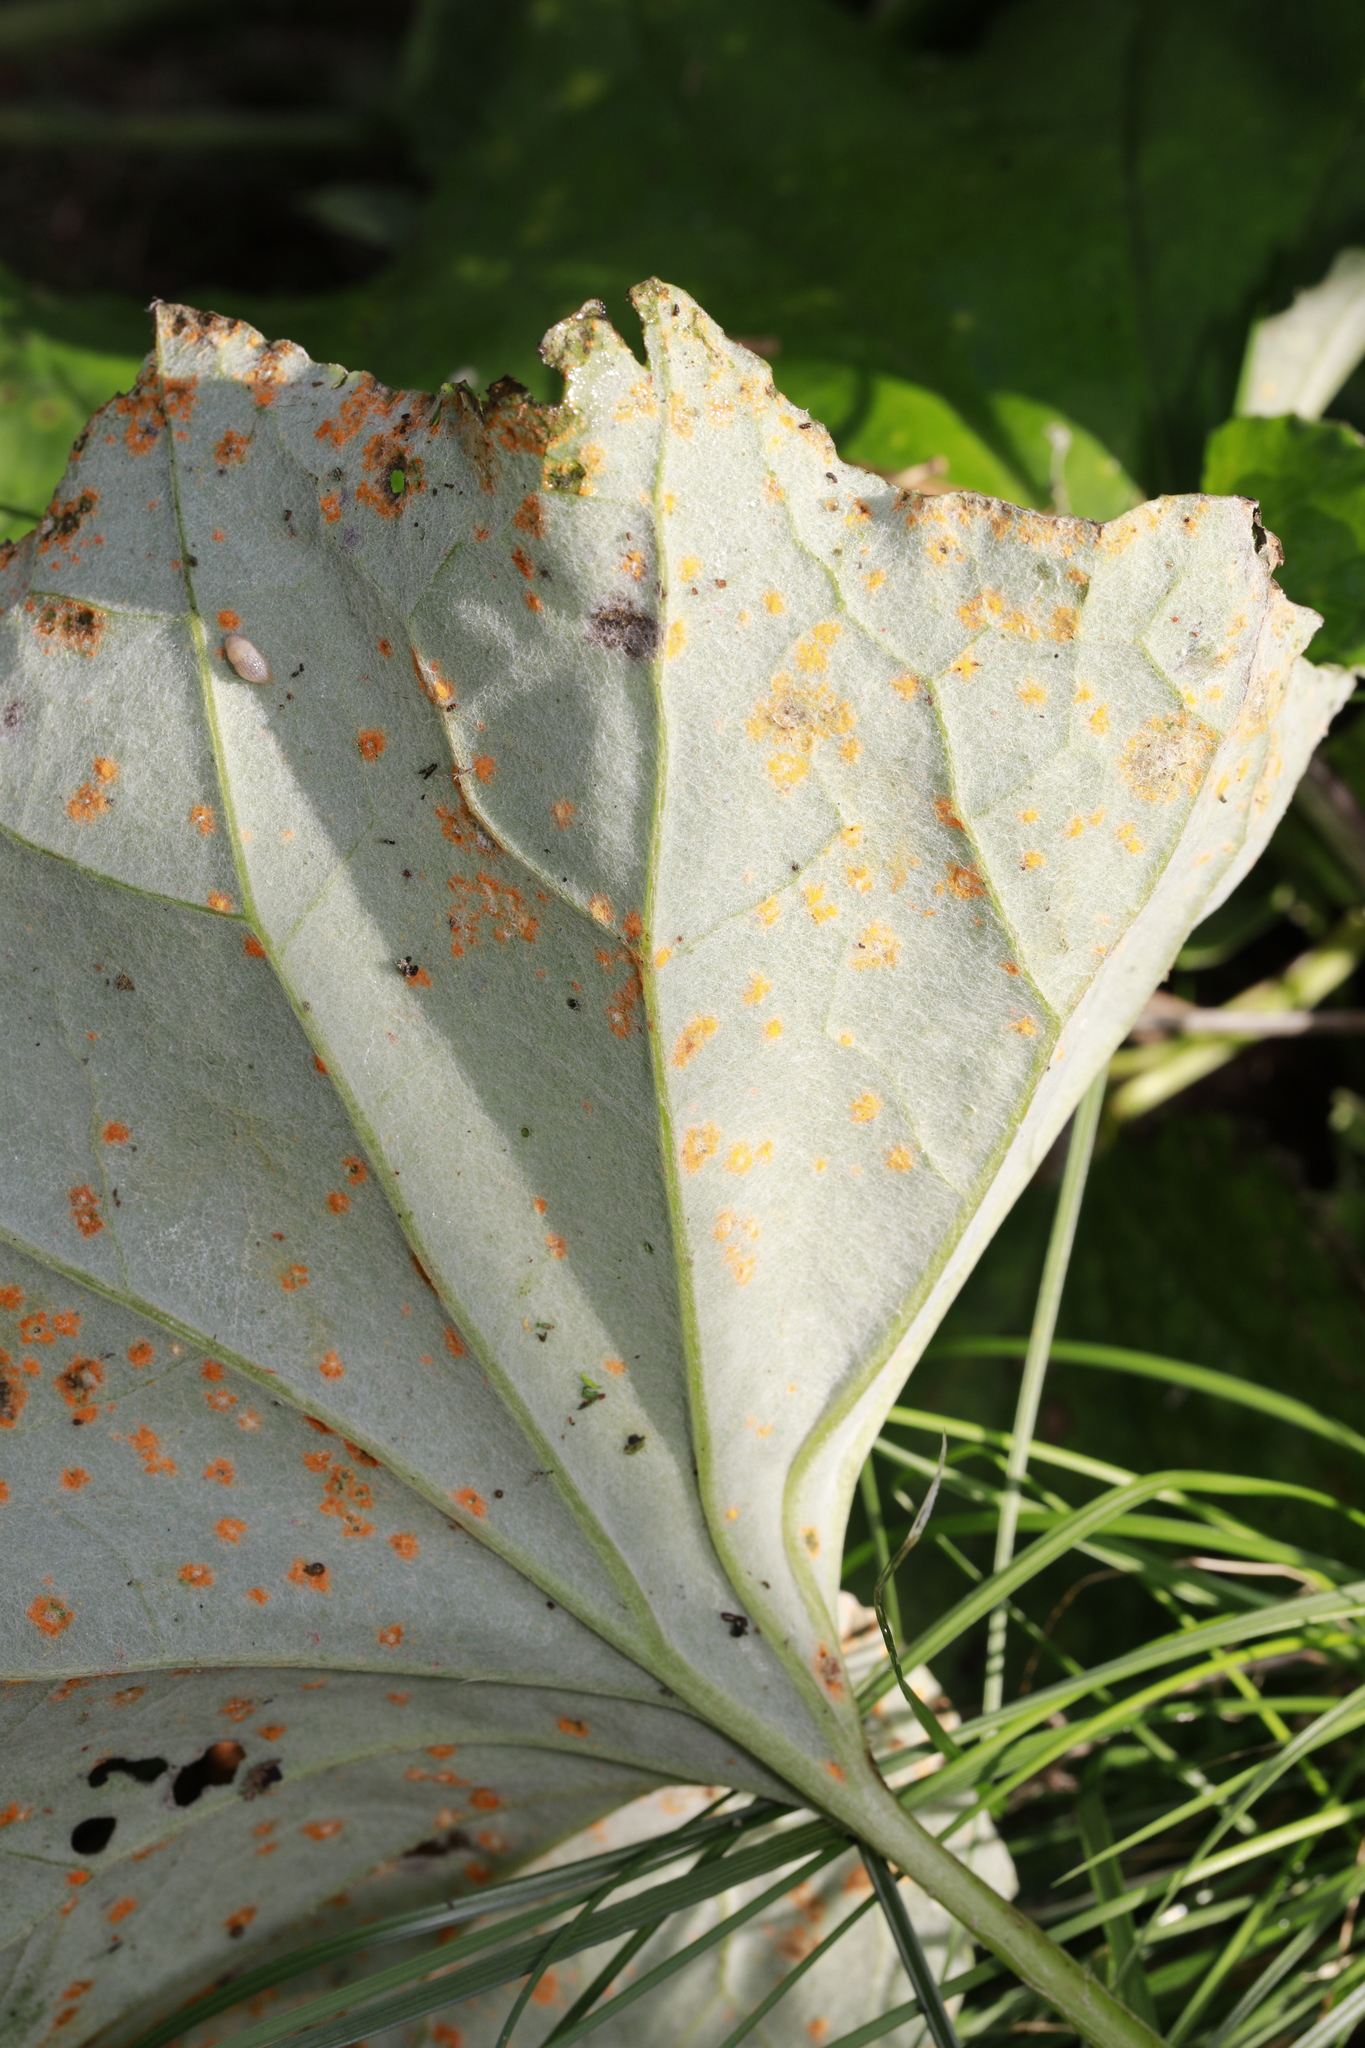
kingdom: Fungi
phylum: Basidiomycota
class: Pucciniomycetes
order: Pucciniales
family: Coleosporiaceae
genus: Coleosporium
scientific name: Coleosporium tussilaginis
